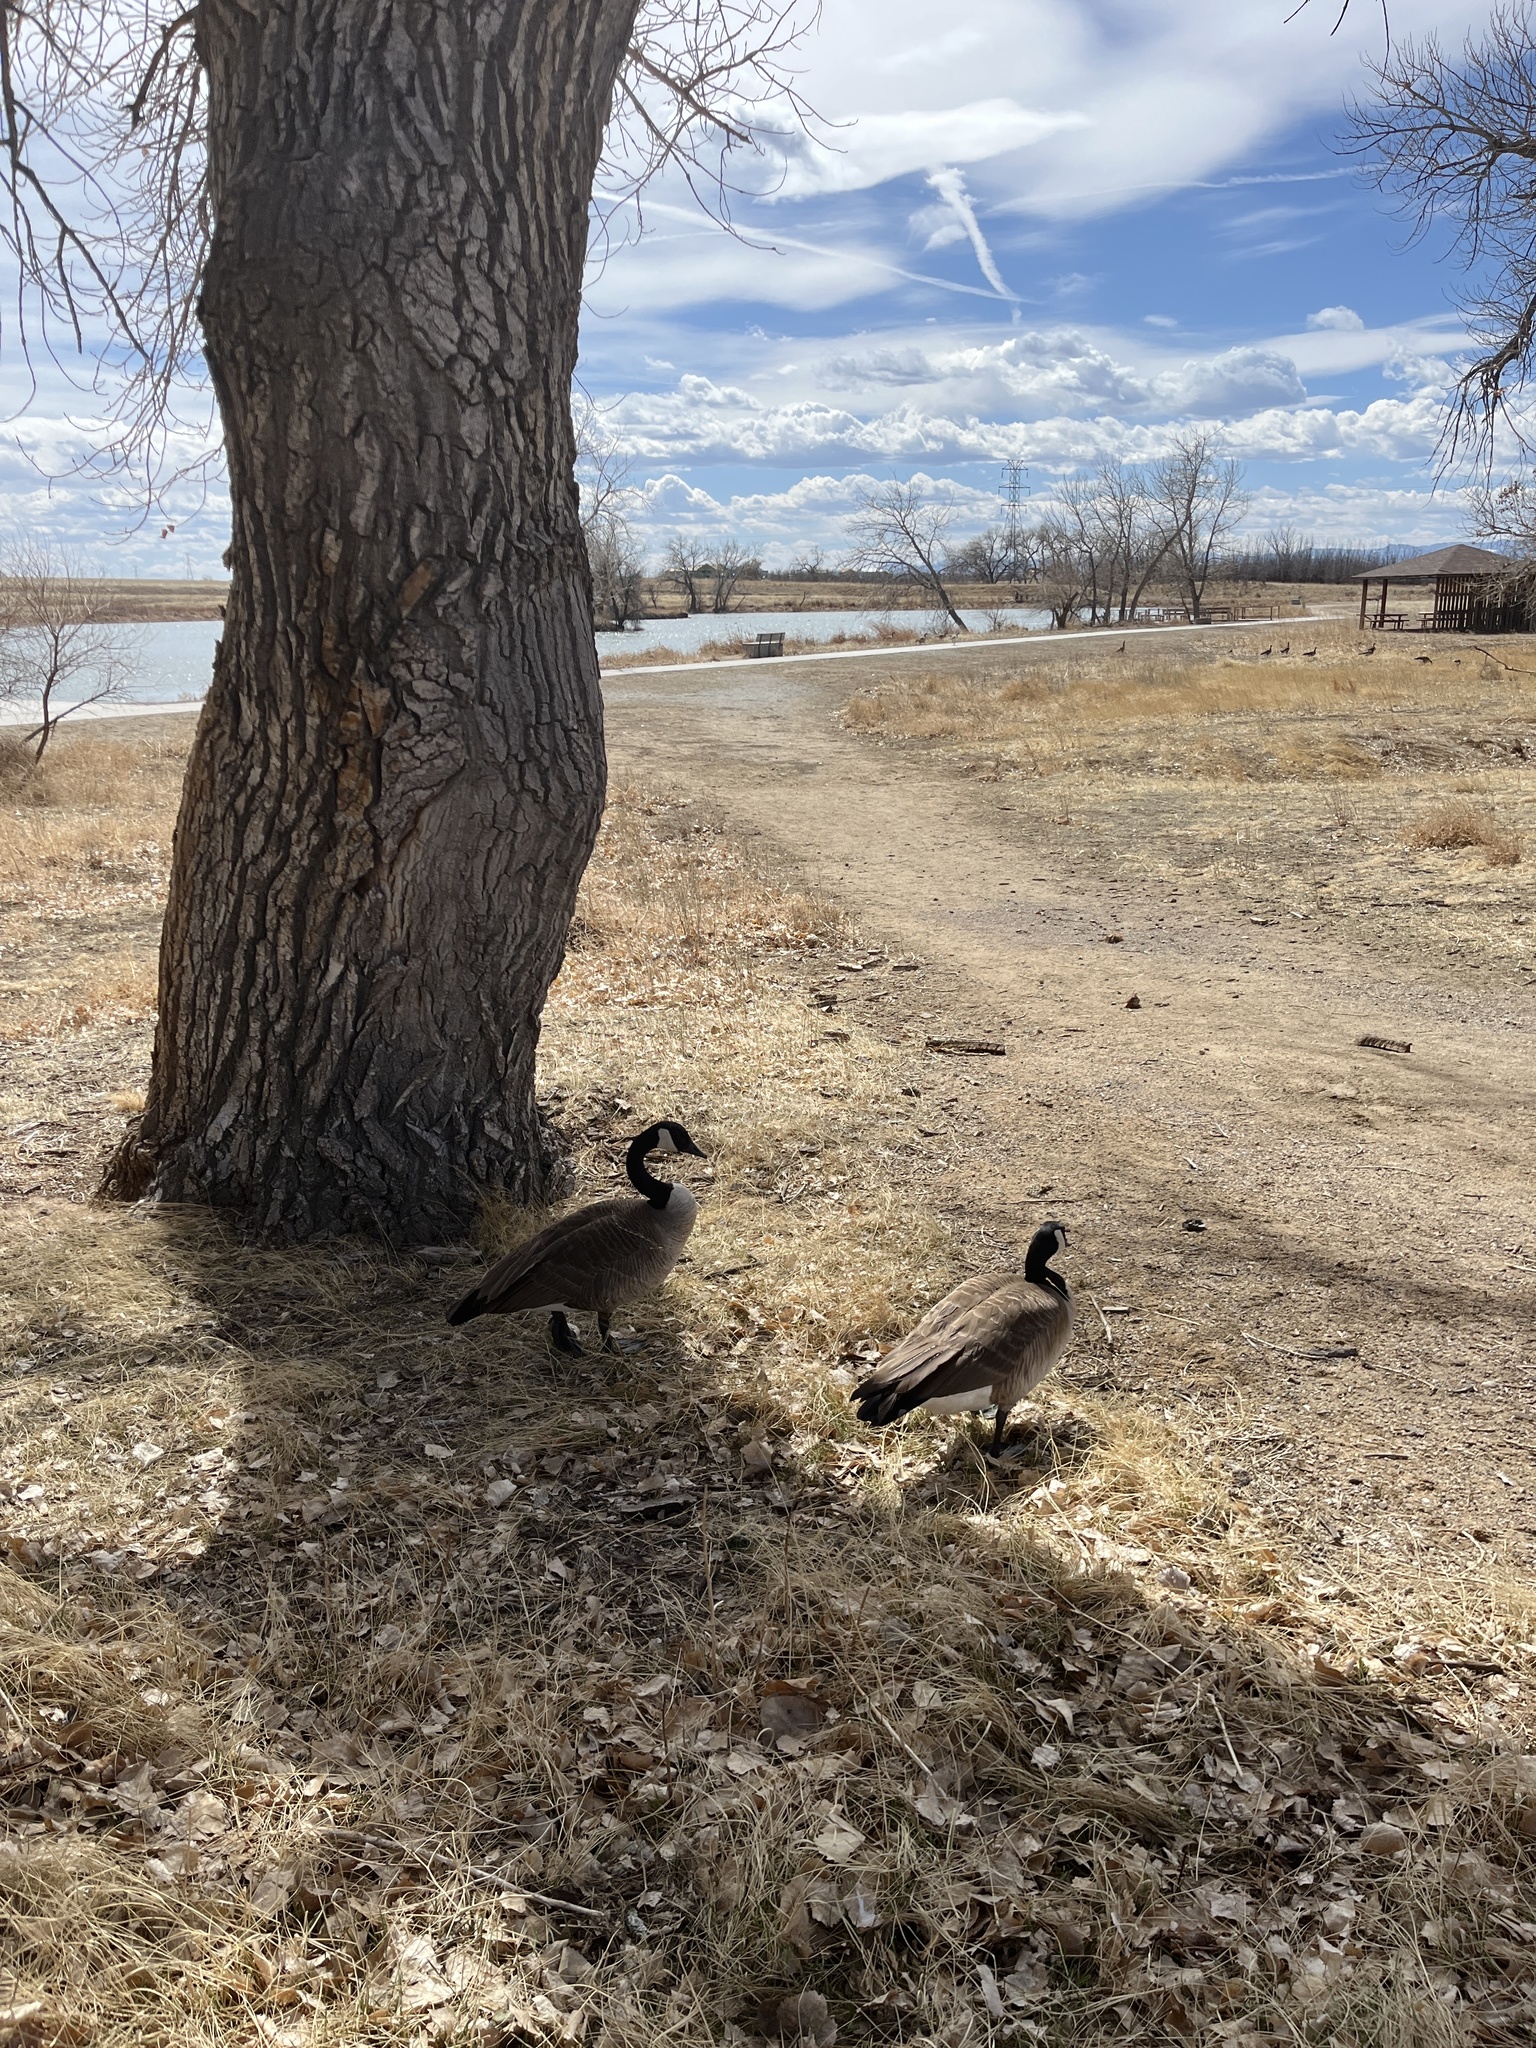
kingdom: Animalia
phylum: Chordata
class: Aves
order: Anseriformes
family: Anatidae
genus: Branta
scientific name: Branta canadensis
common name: Canada goose
